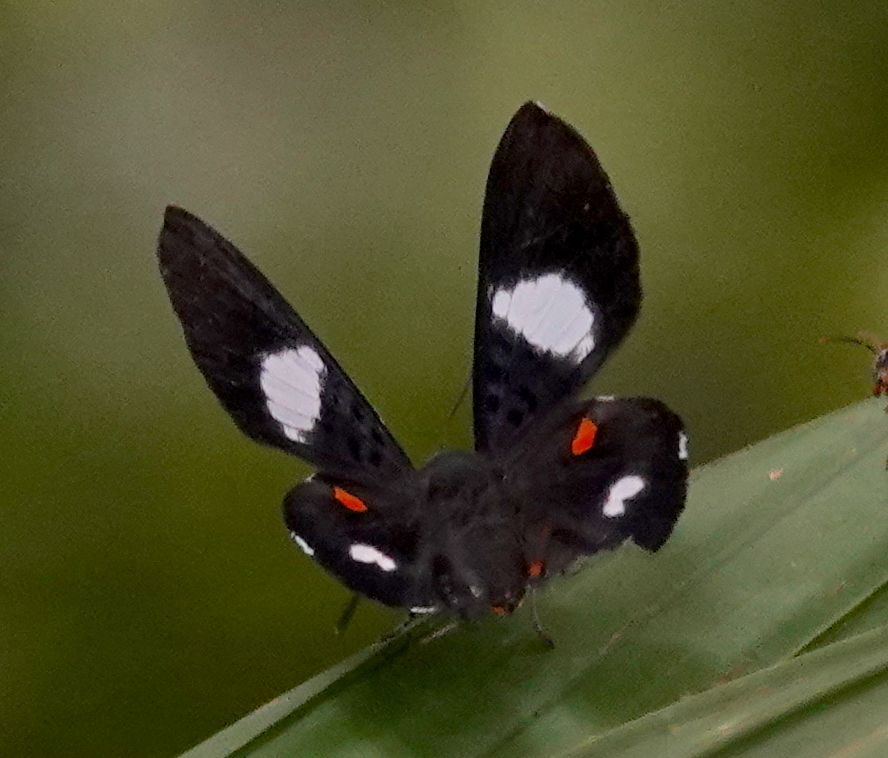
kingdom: Animalia
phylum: Arthropoda
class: Insecta
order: Lepidoptera
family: Riodinidae
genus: Cyrenia
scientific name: Cyrenia martia
